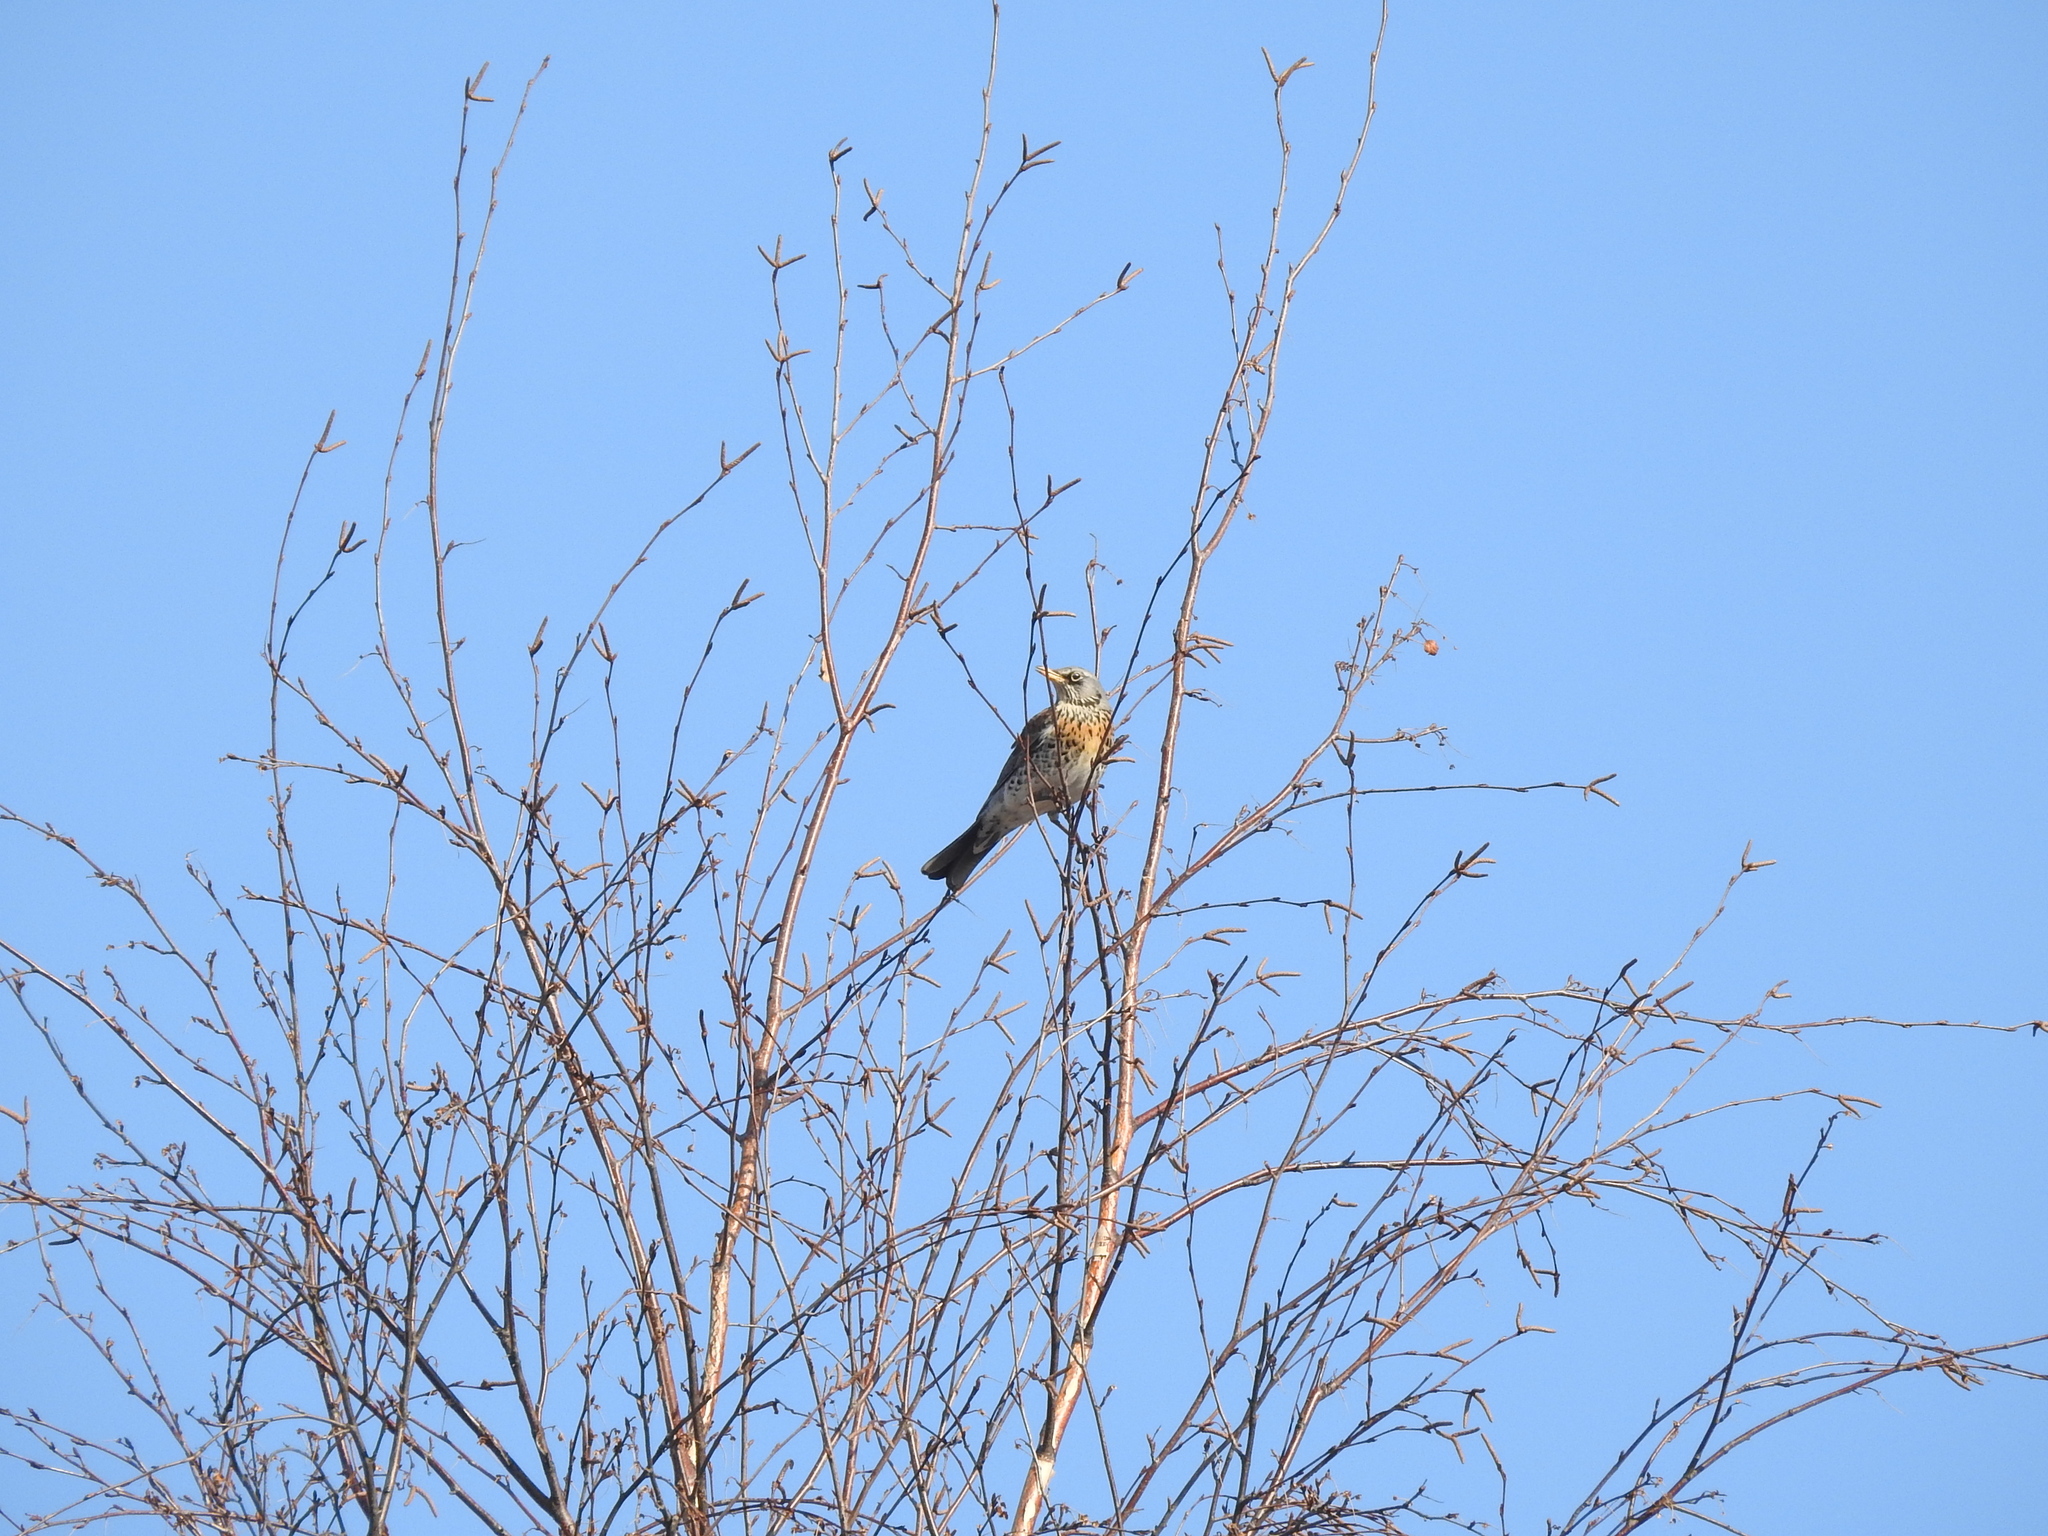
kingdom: Animalia
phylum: Chordata
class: Aves
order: Passeriformes
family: Turdidae
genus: Turdus
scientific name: Turdus pilaris
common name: Fieldfare
